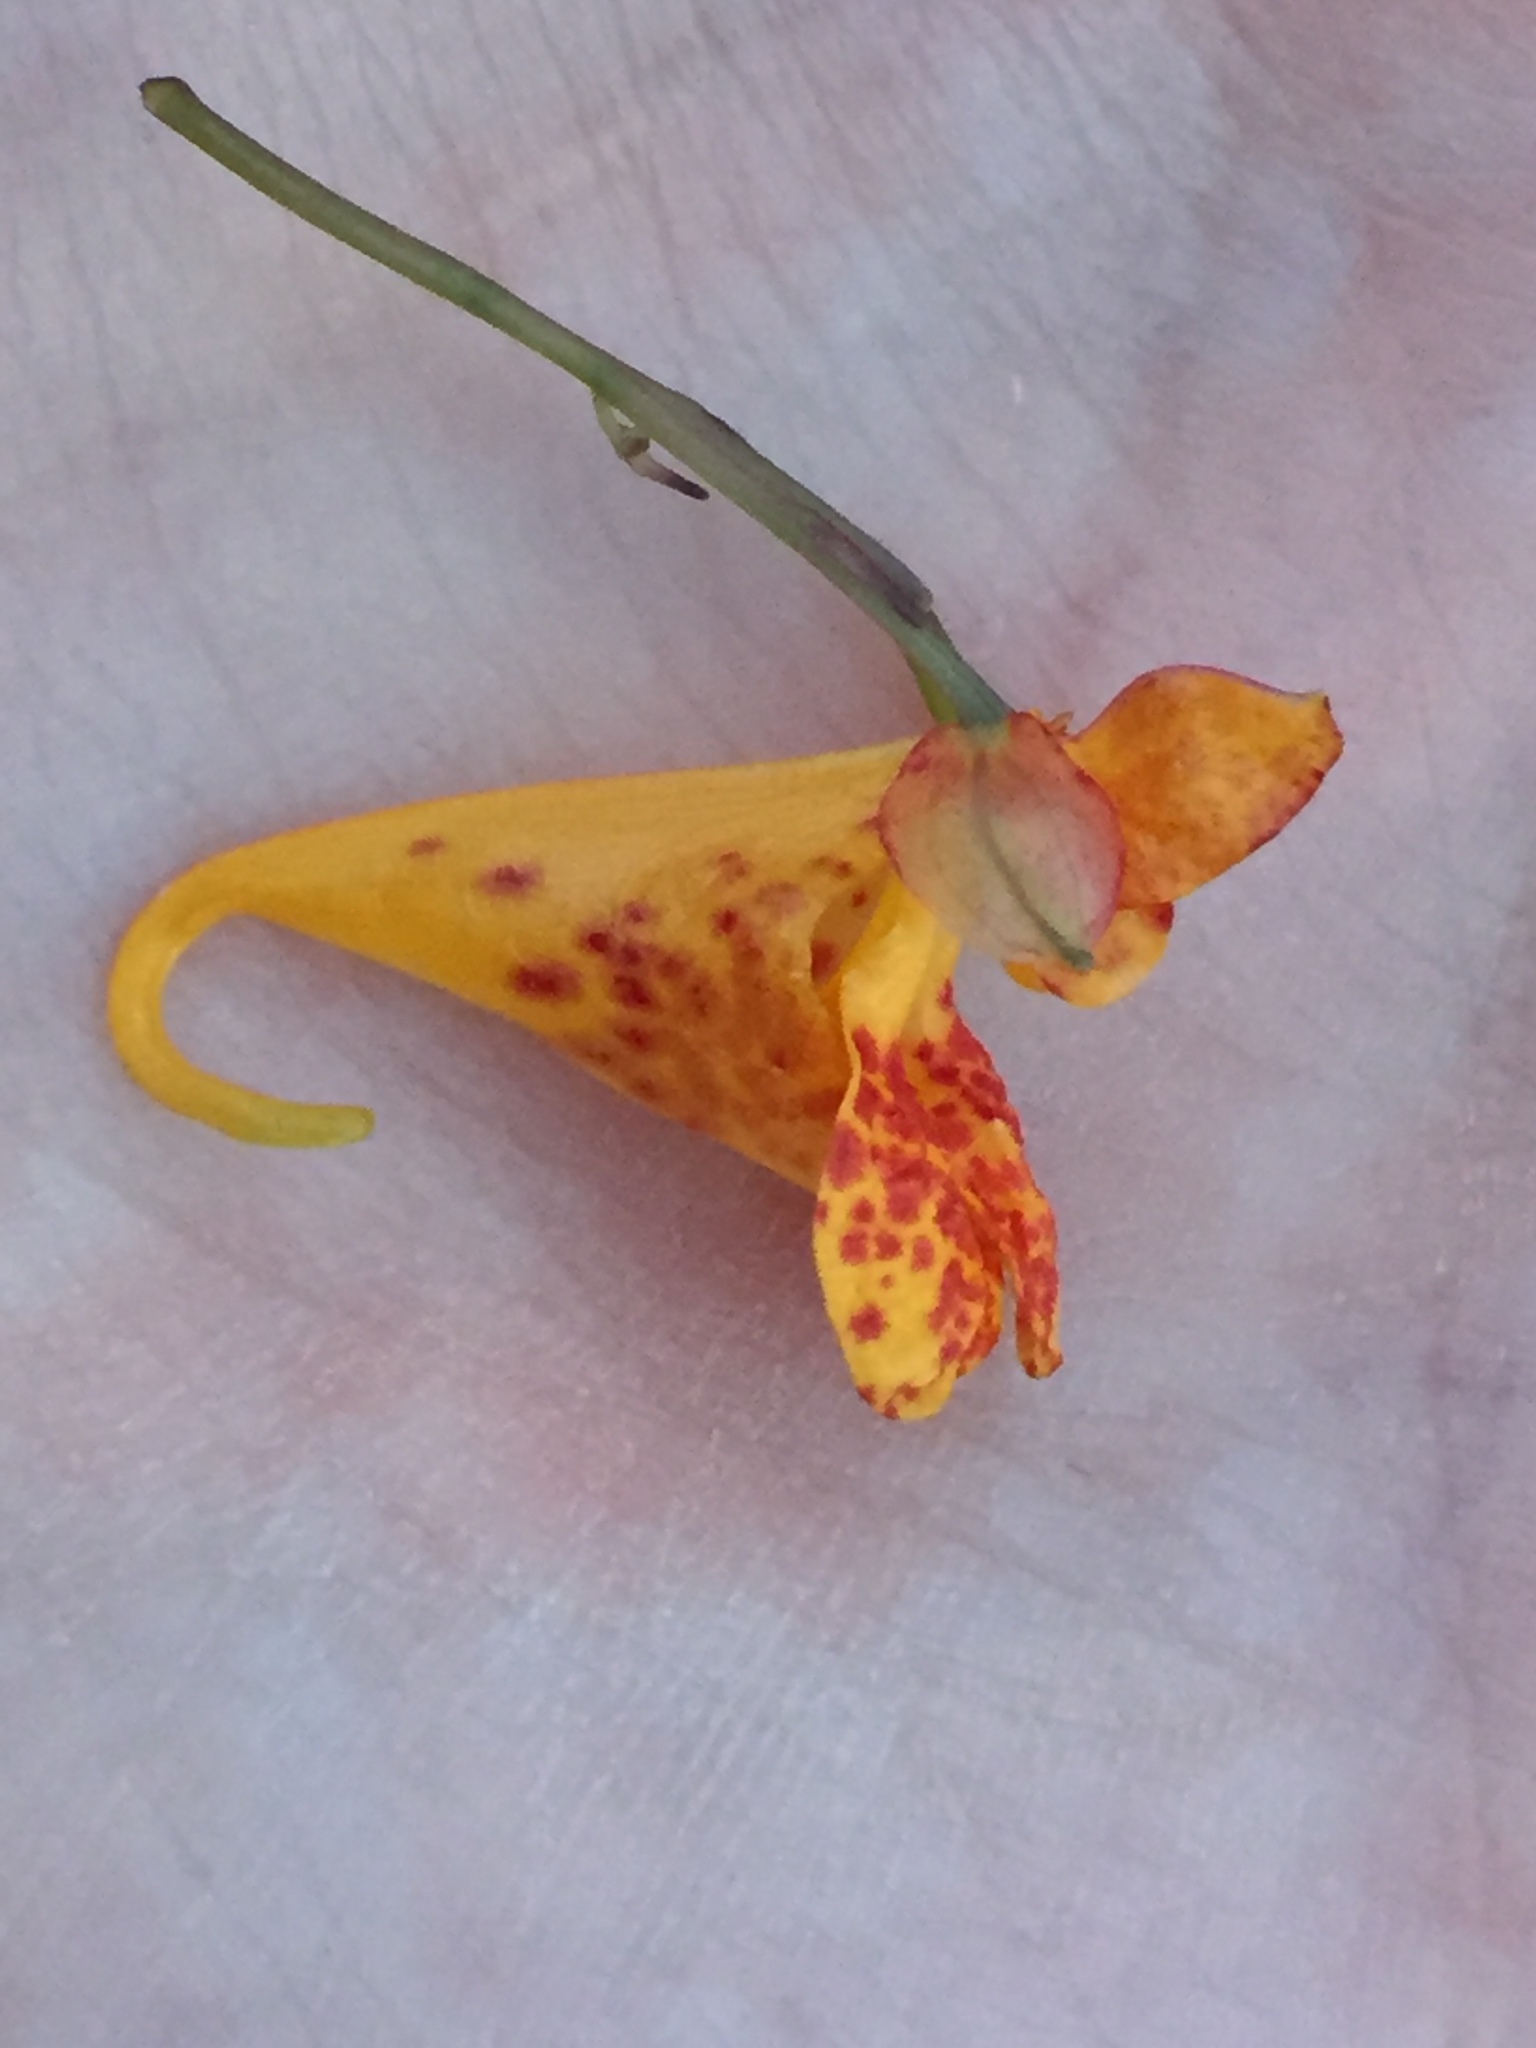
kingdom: Plantae
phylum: Tracheophyta
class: Magnoliopsida
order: Ericales
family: Balsaminaceae
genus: Impatiens
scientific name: Impatiens capensis
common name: Orange balsam
